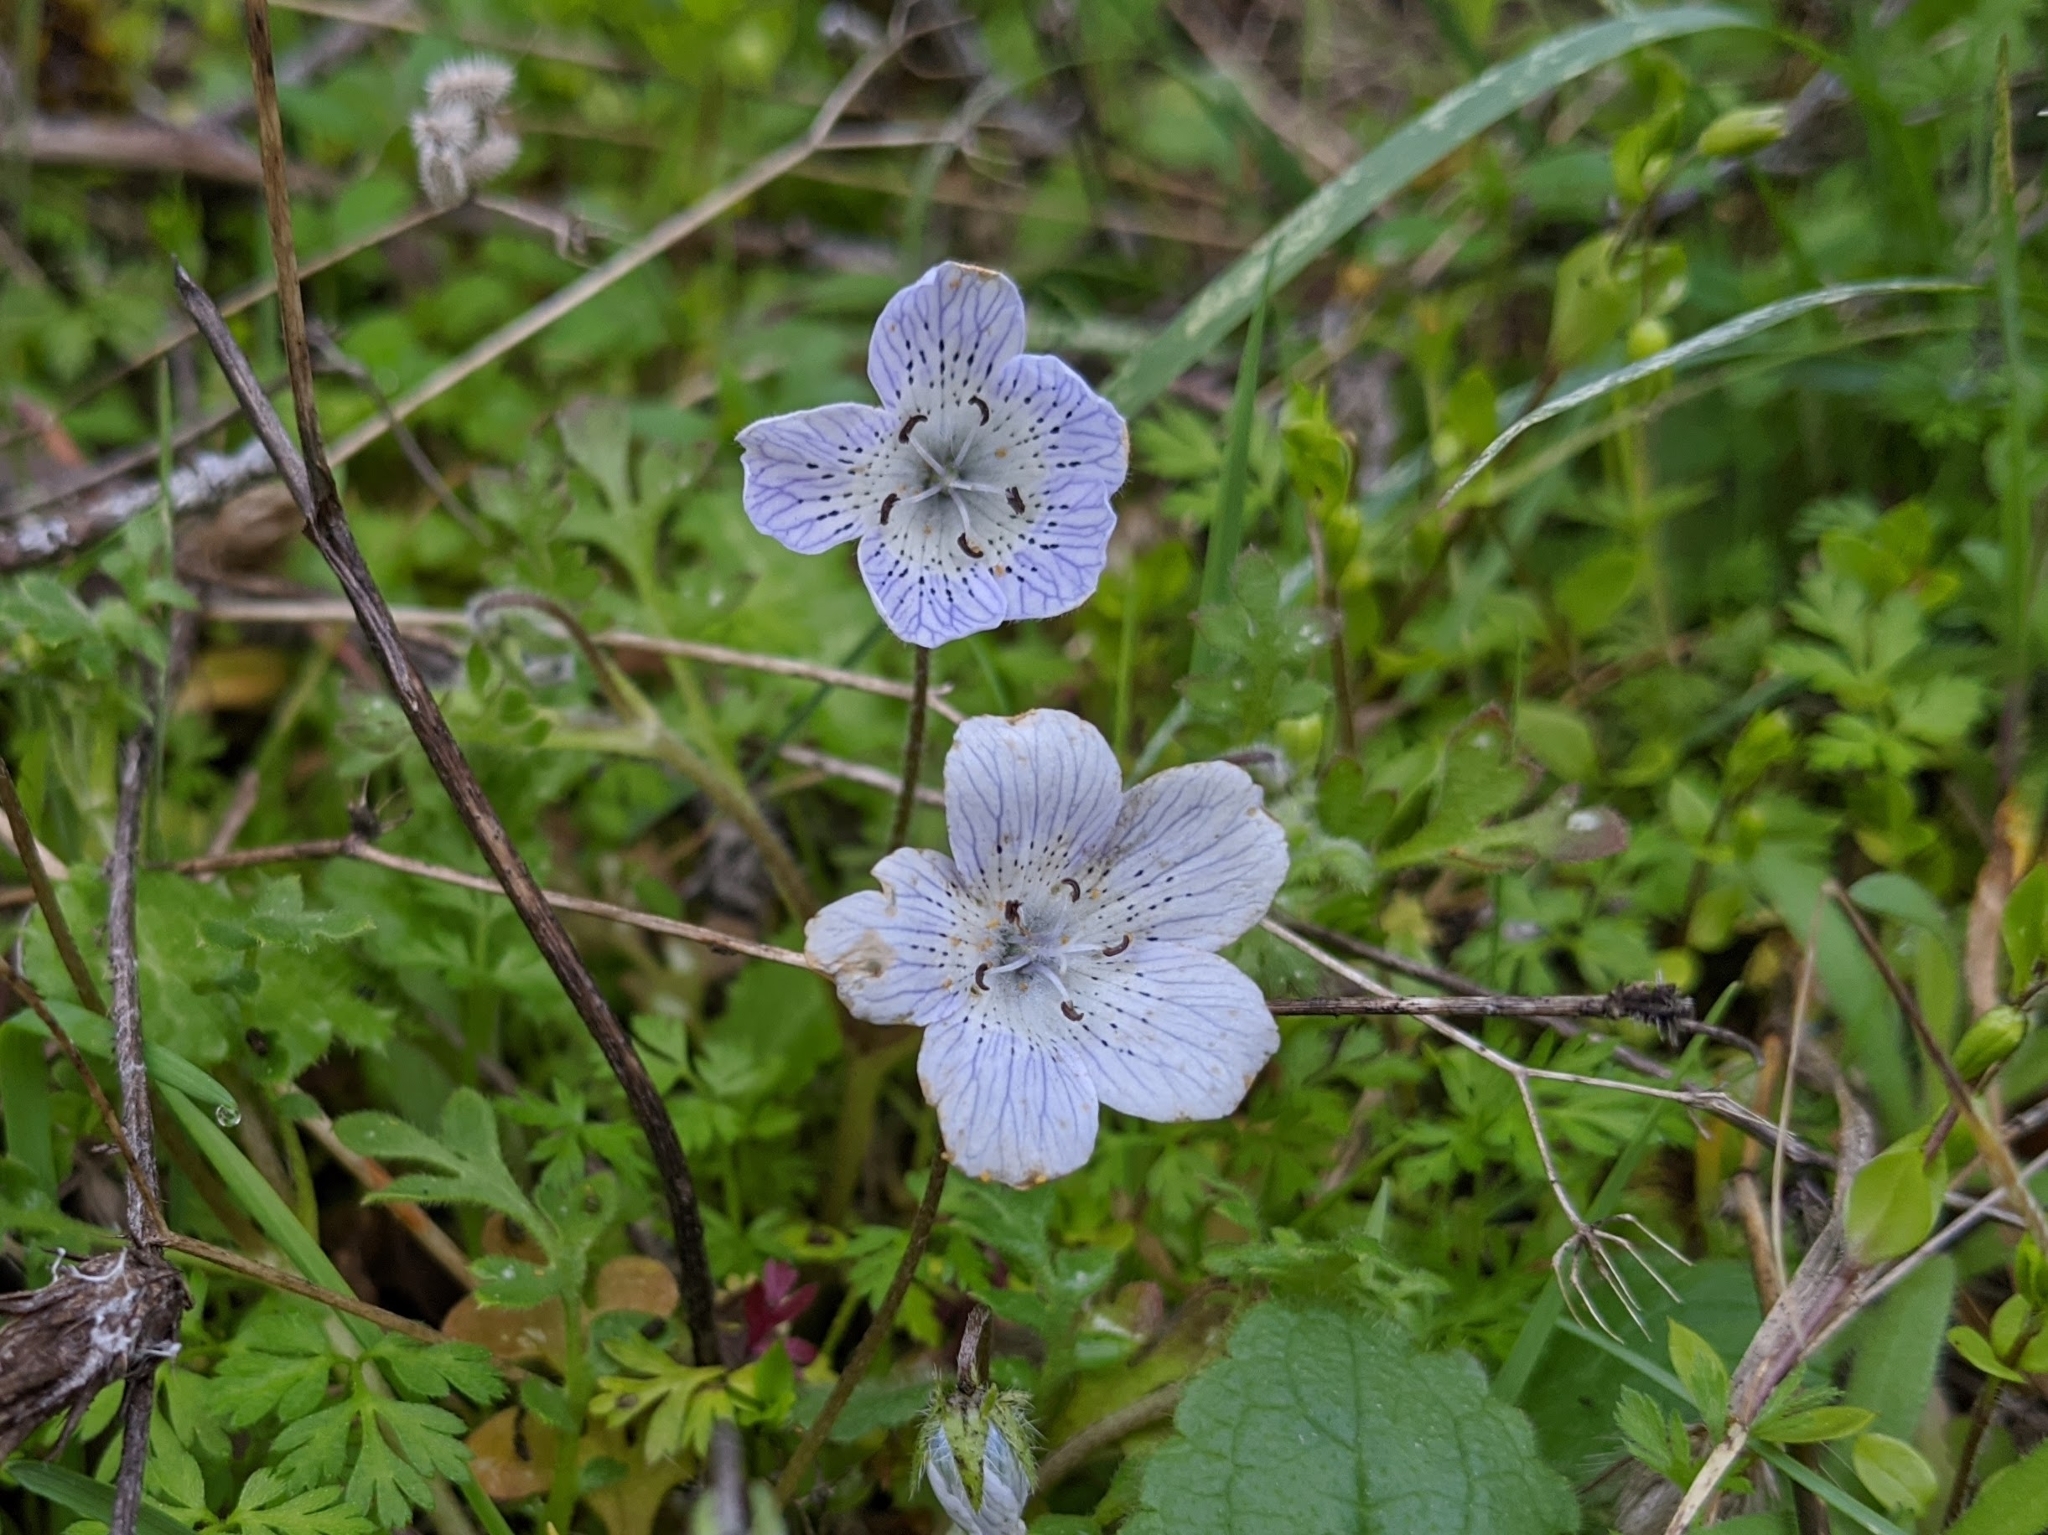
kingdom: Plantae
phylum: Tracheophyta
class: Magnoliopsida
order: Boraginales
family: Hydrophyllaceae
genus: Nemophila
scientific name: Nemophila menziesii
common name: Baby's-blue-eyes
